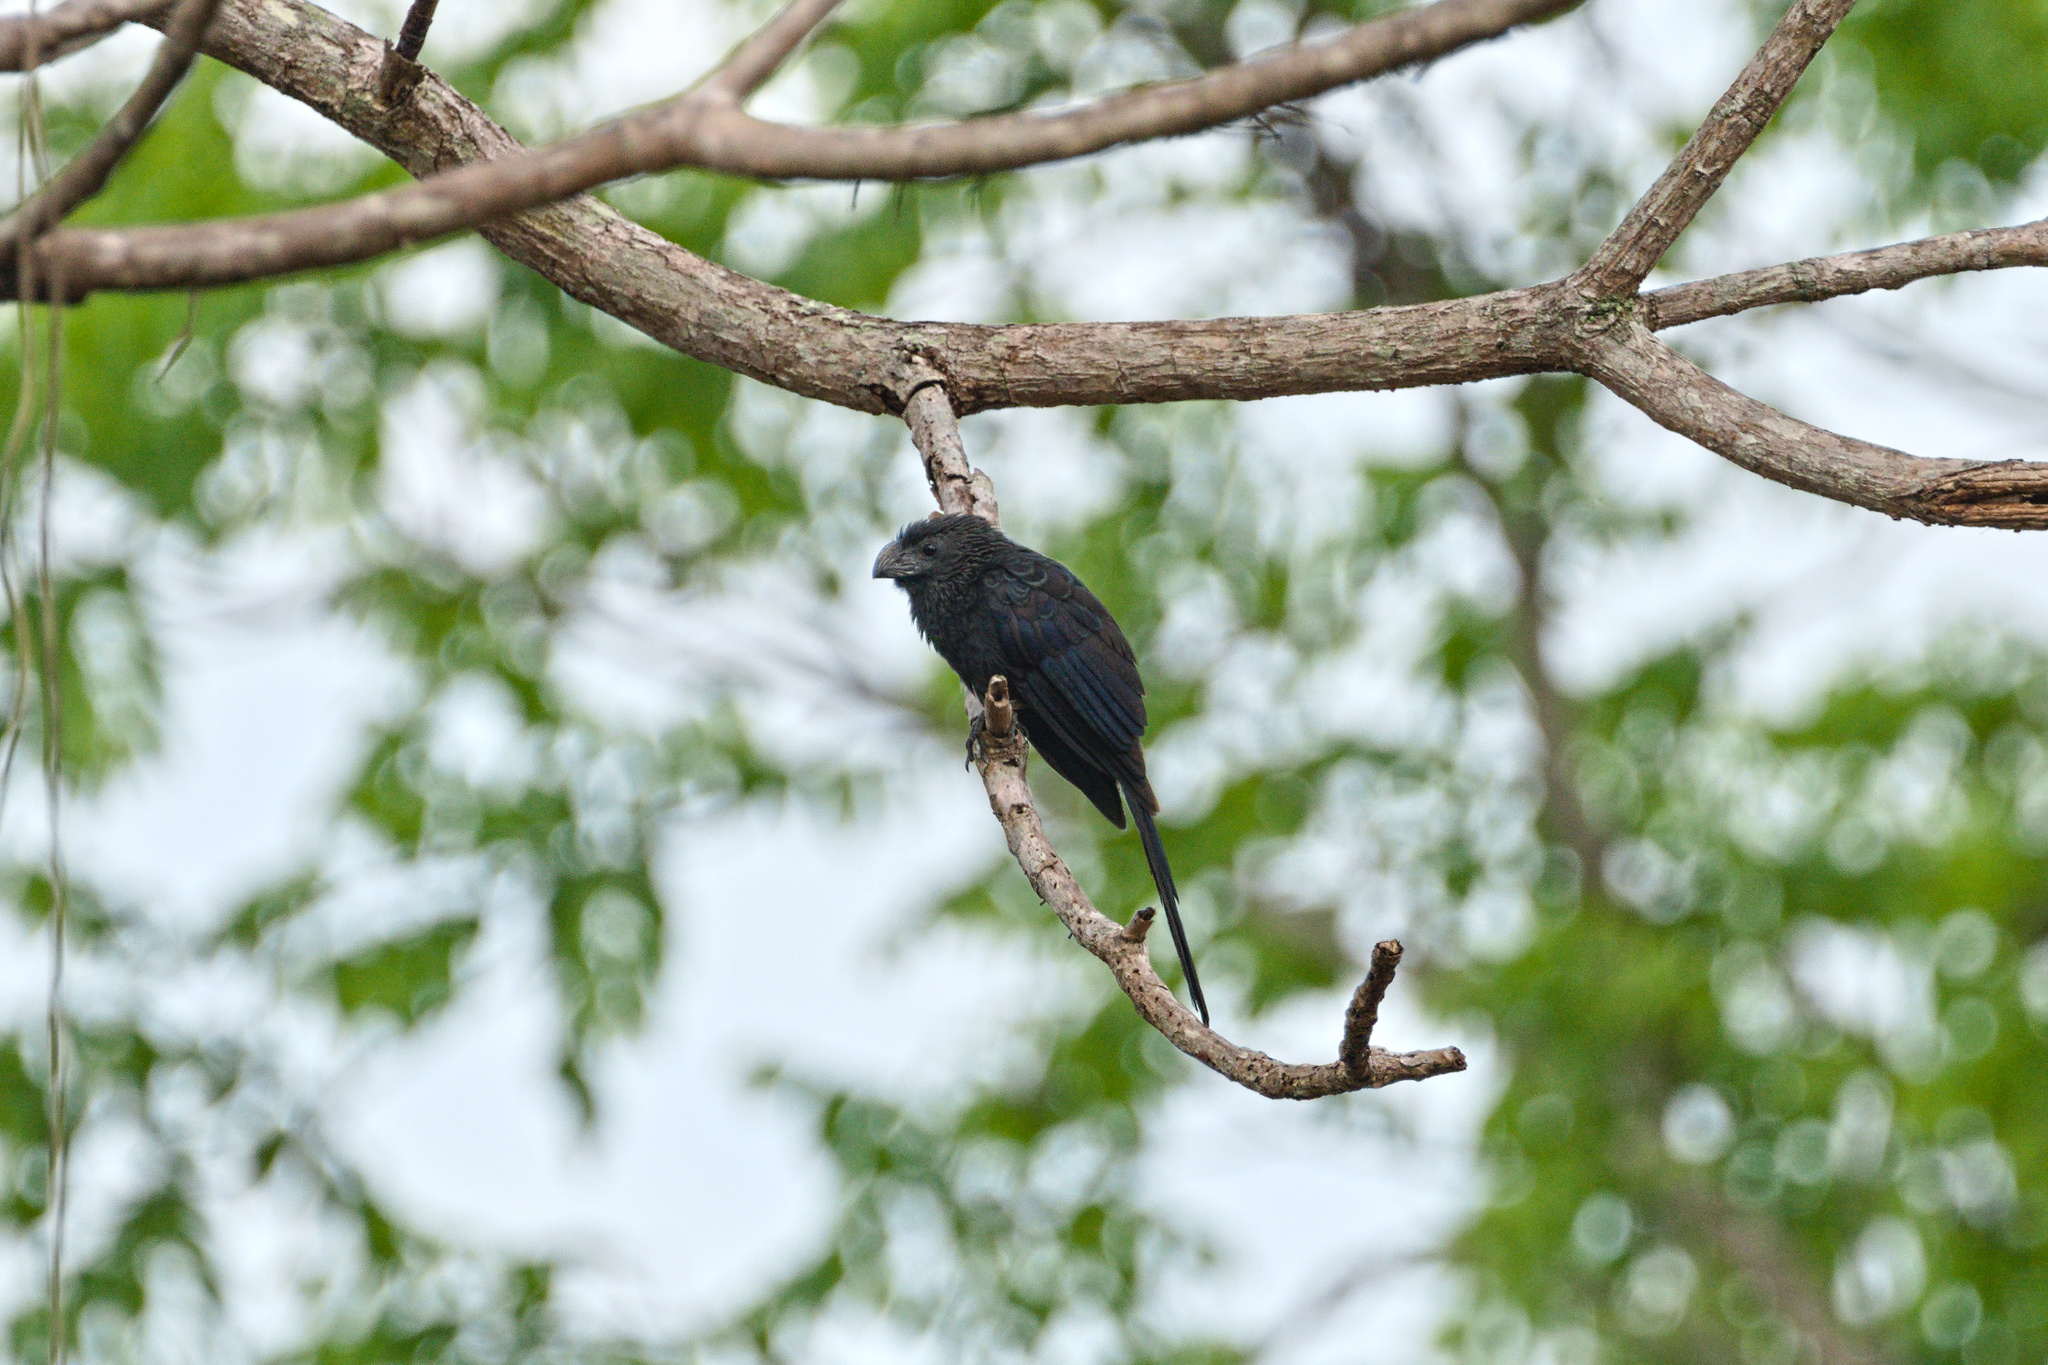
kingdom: Animalia
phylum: Chordata
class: Aves
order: Cuculiformes
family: Cuculidae
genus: Crotophaga
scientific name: Crotophaga sulcirostris
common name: Groove-billed ani
